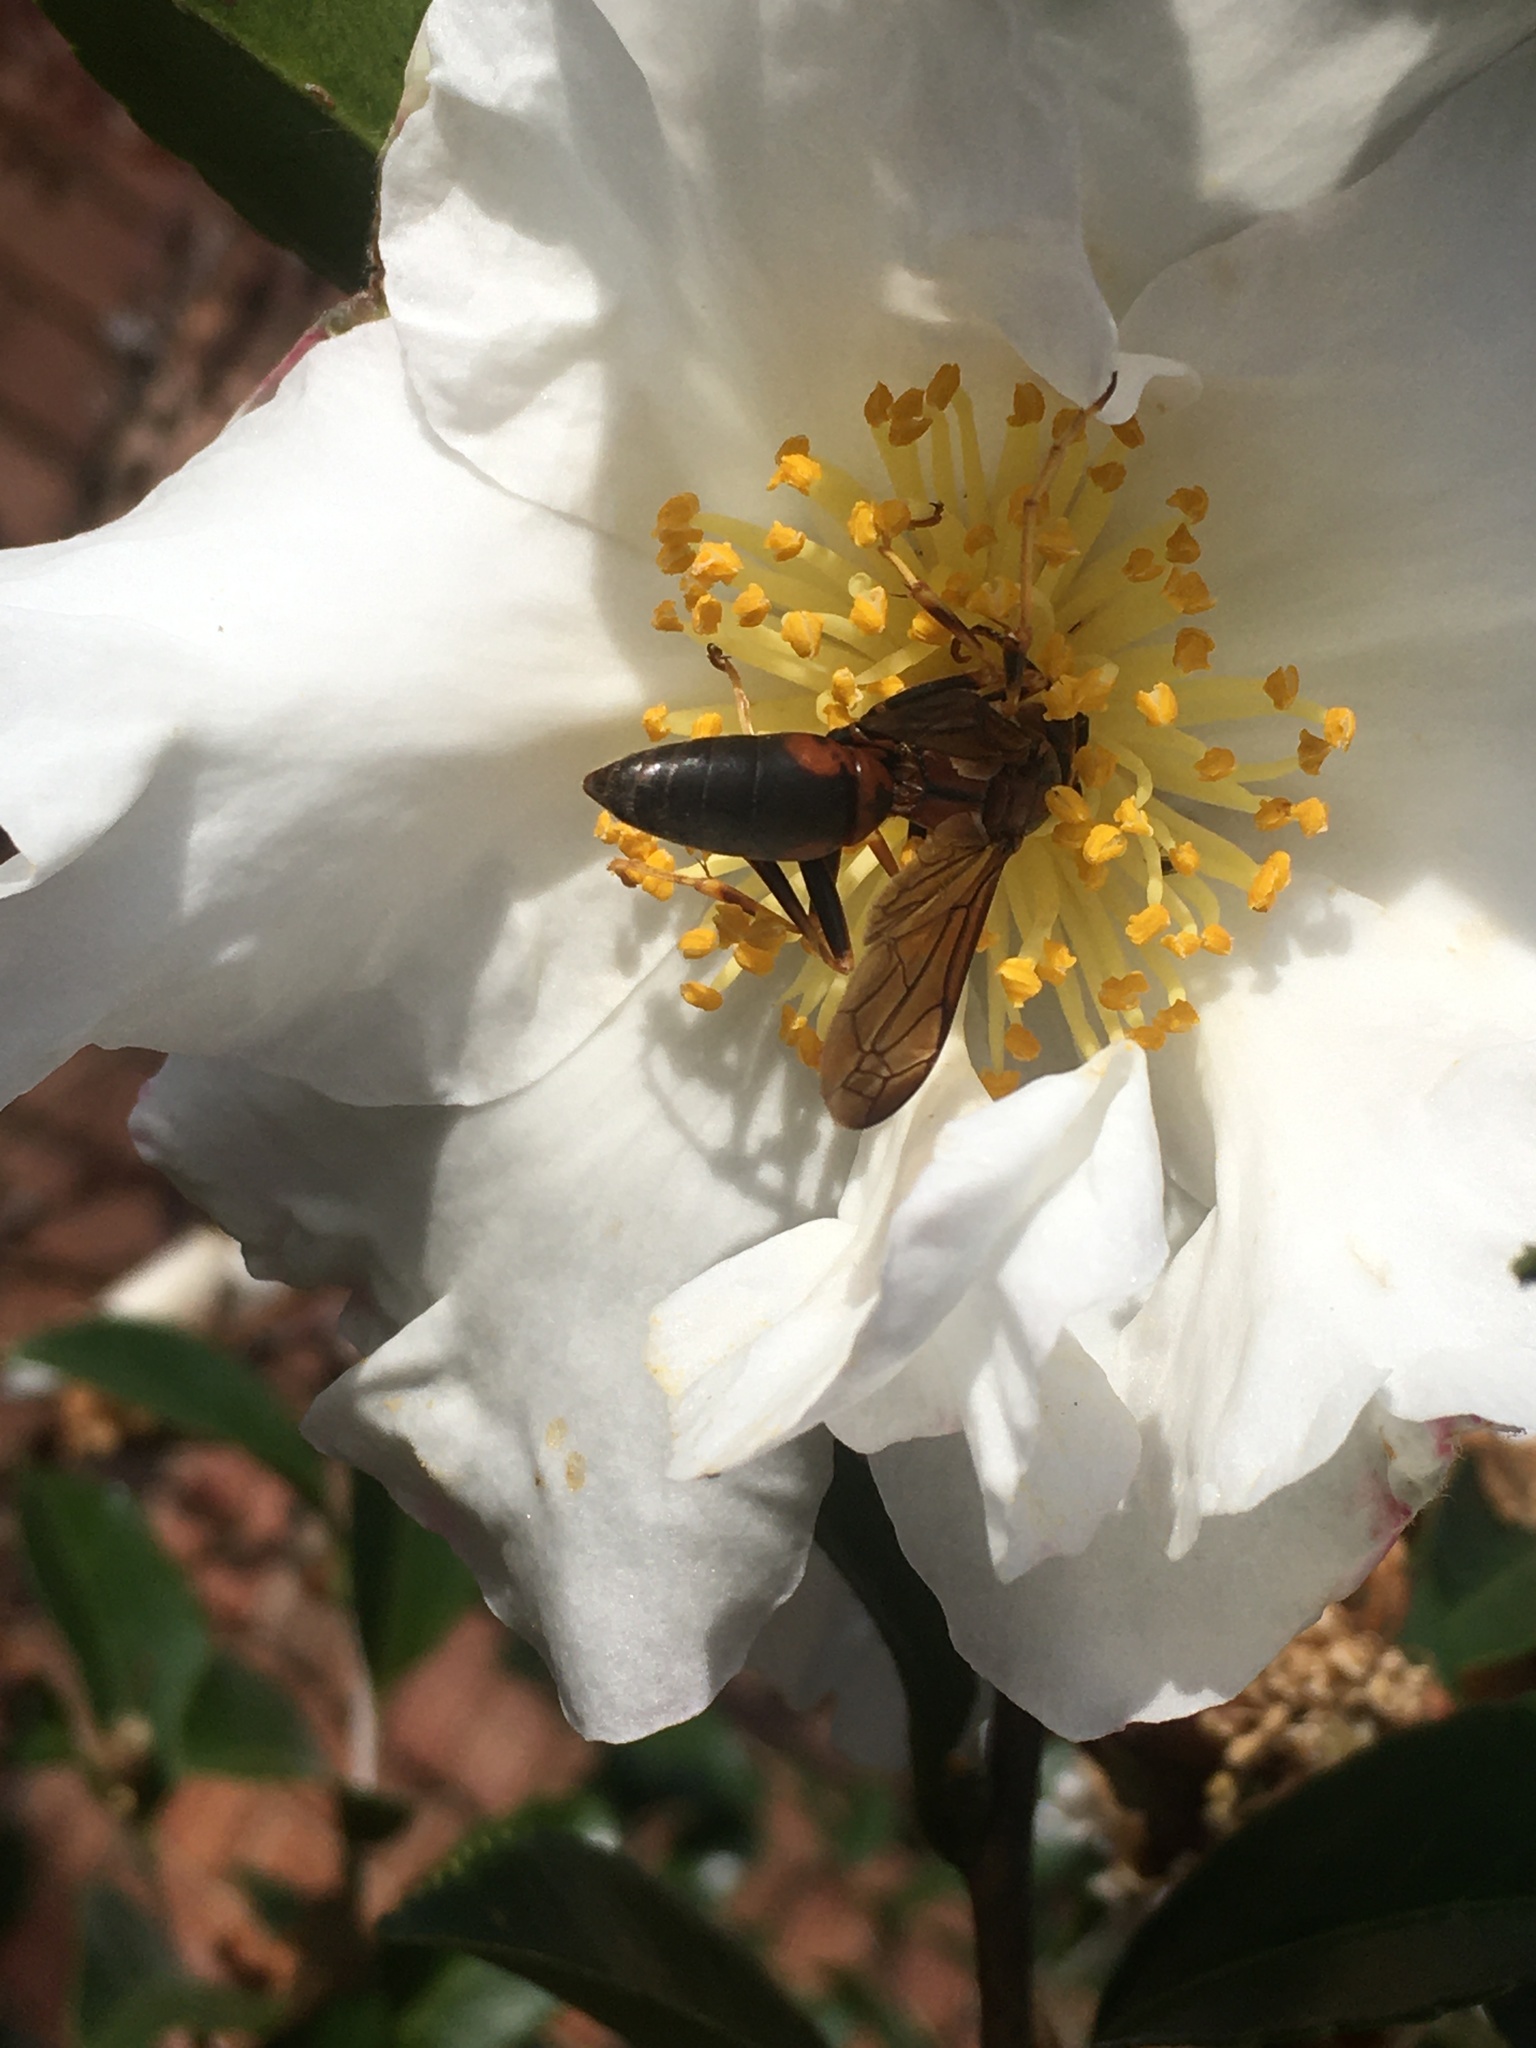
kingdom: Animalia
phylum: Arthropoda
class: Insecta
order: Hymenoptera
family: Eumenidae
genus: Polistes
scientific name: Polistes metricus
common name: Metric paper wasp
